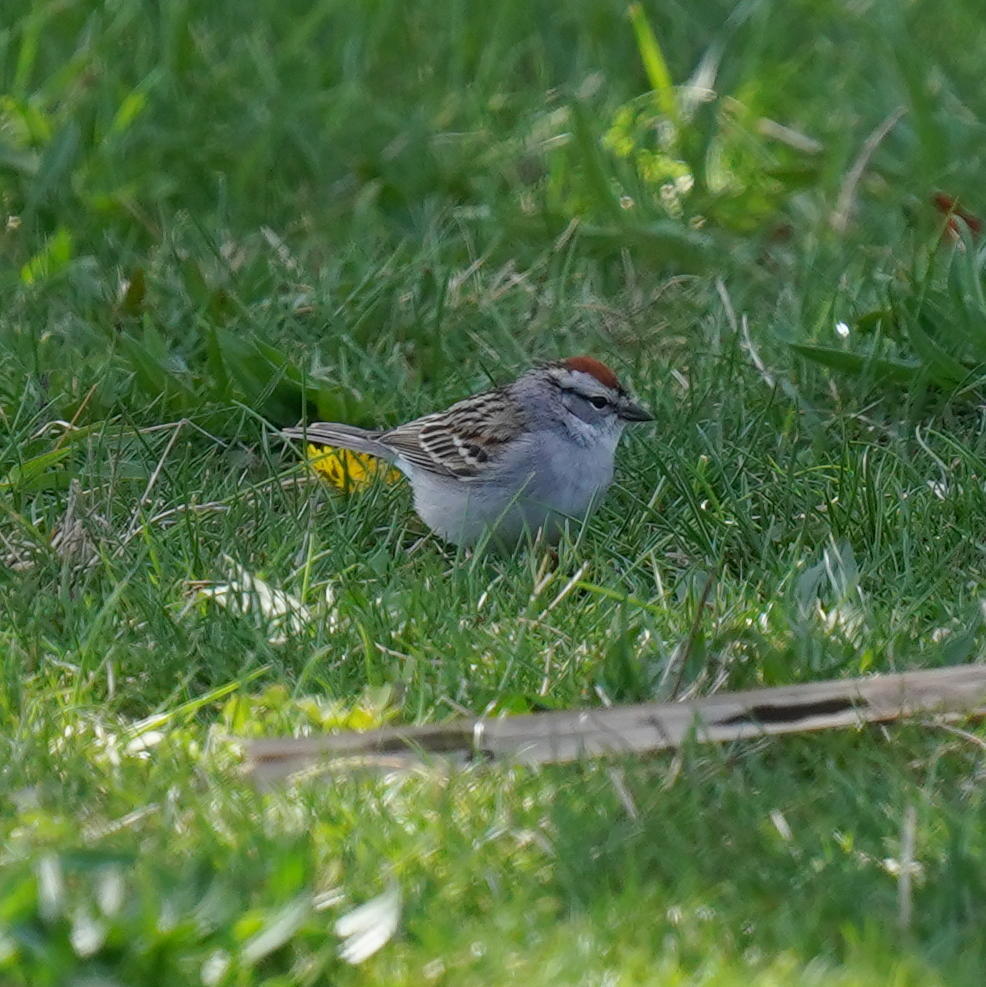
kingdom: Animalia
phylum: Chordata
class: Aves
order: Passeriformes
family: Passerellidae
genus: Spizella
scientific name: Spizella passerina
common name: Chipping sparrow
